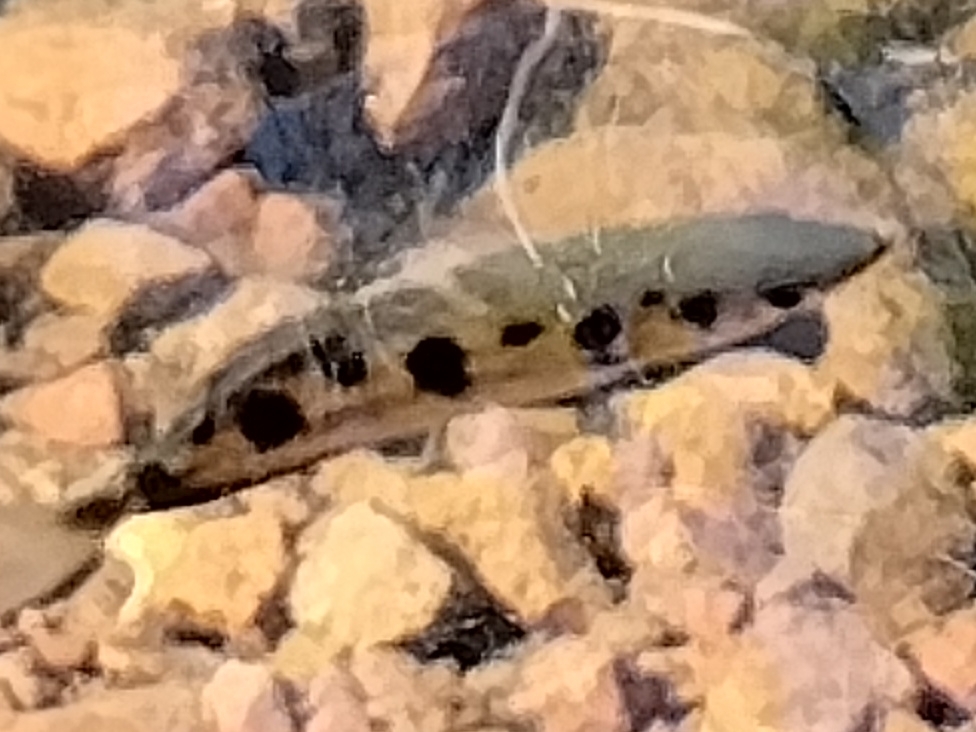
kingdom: Animalia
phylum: Chordata
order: Perciformes
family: Toxotidae
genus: Toxotes
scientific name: Toxotes chatareus
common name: Spotted archerfish
